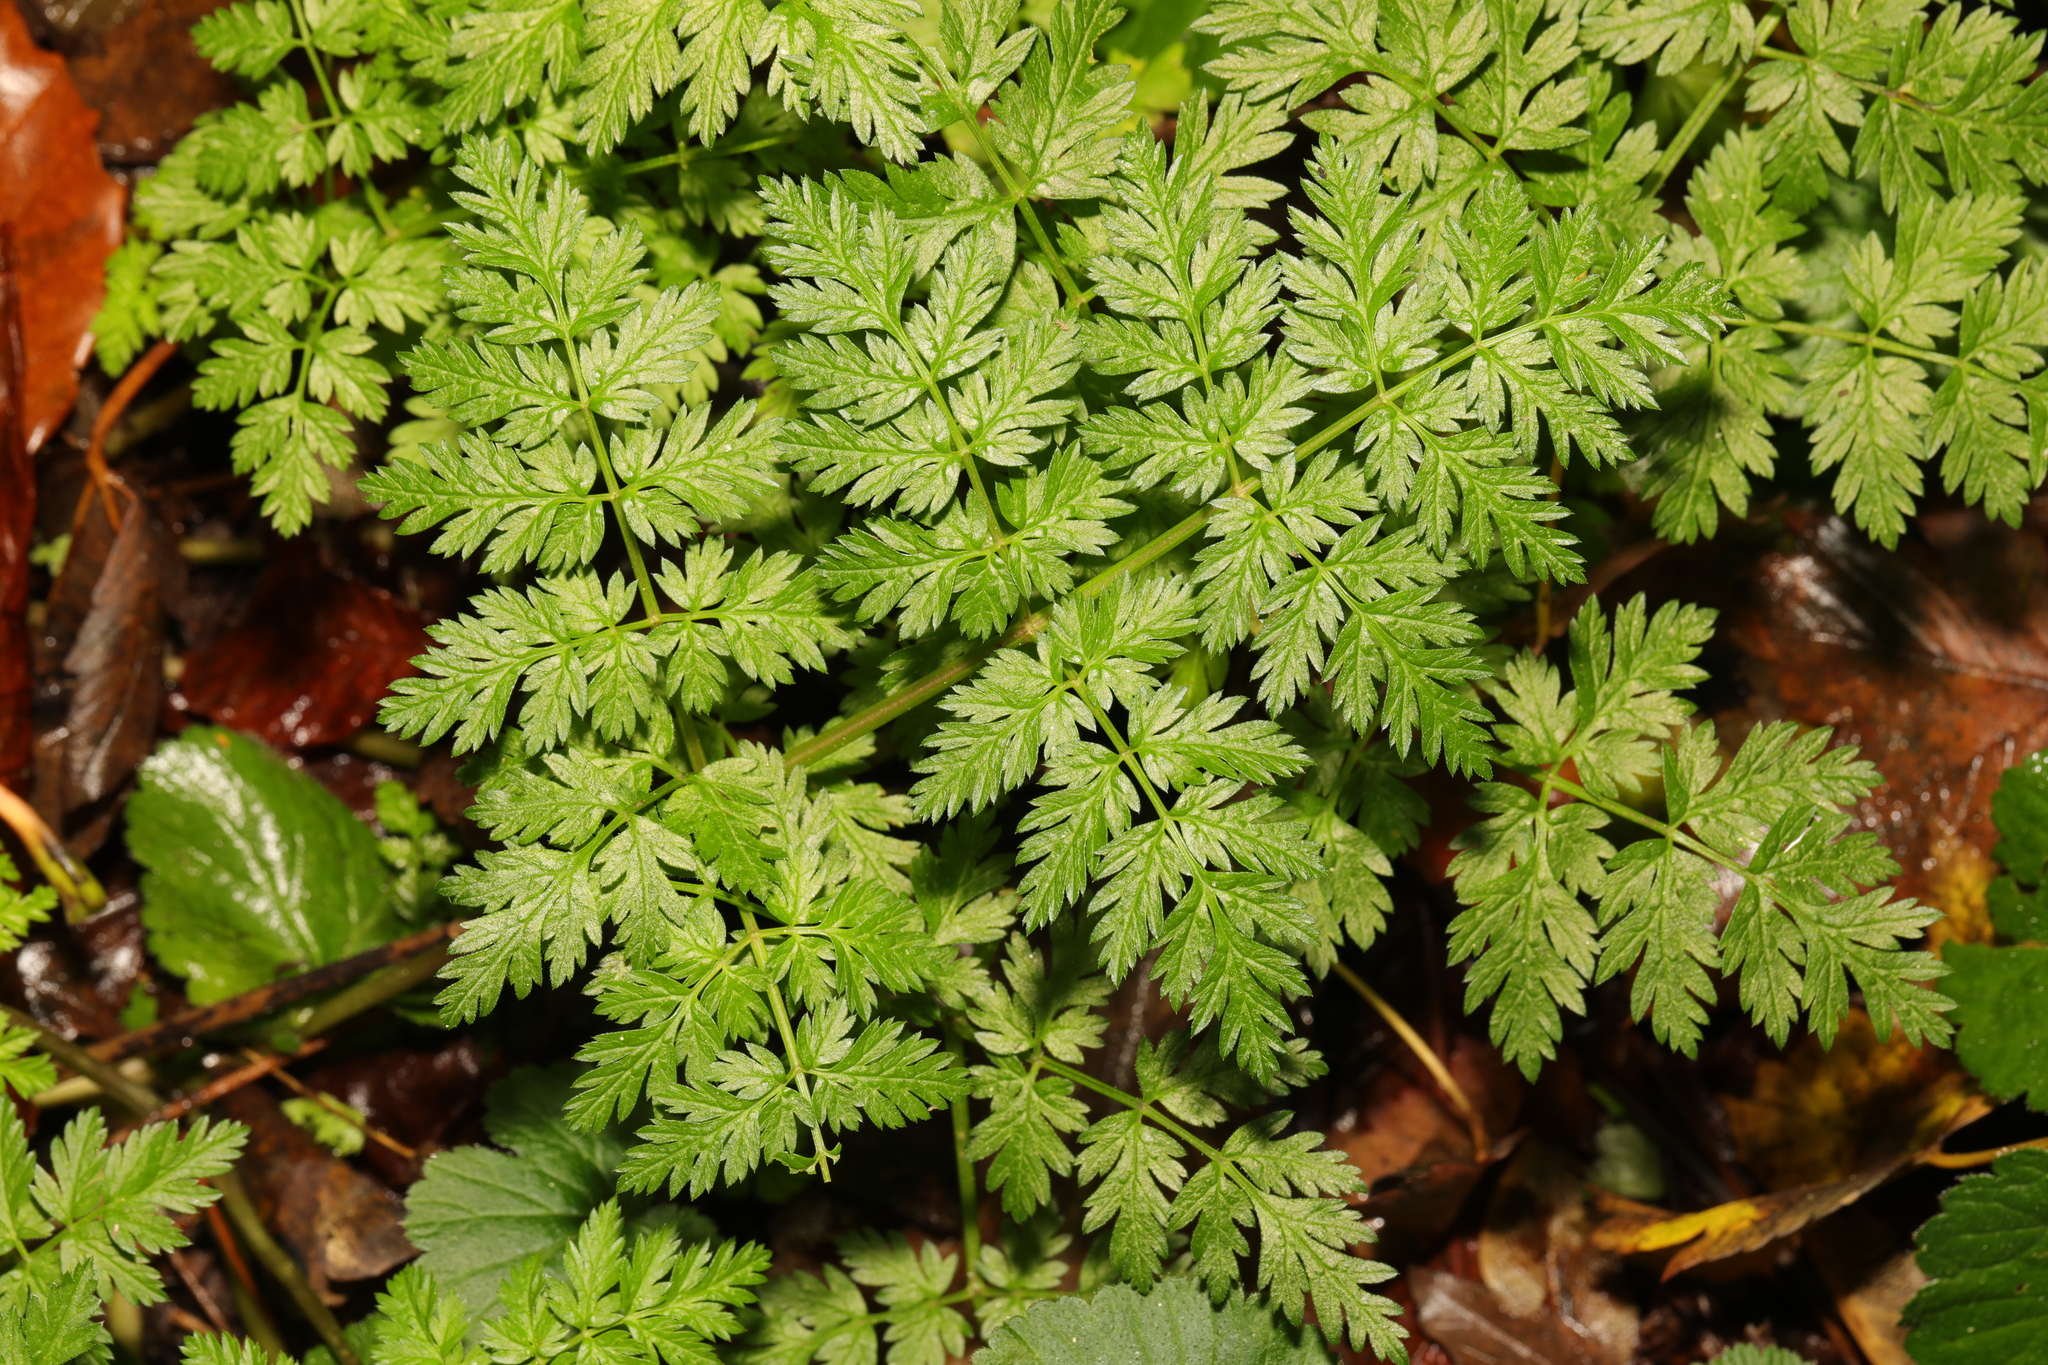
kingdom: Plantae
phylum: Tracheophyta
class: Magnoliopsida
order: Apiales
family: Apiaceae
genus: Anthriscus
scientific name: Anthriscus sylvestris
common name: Cow parsley
